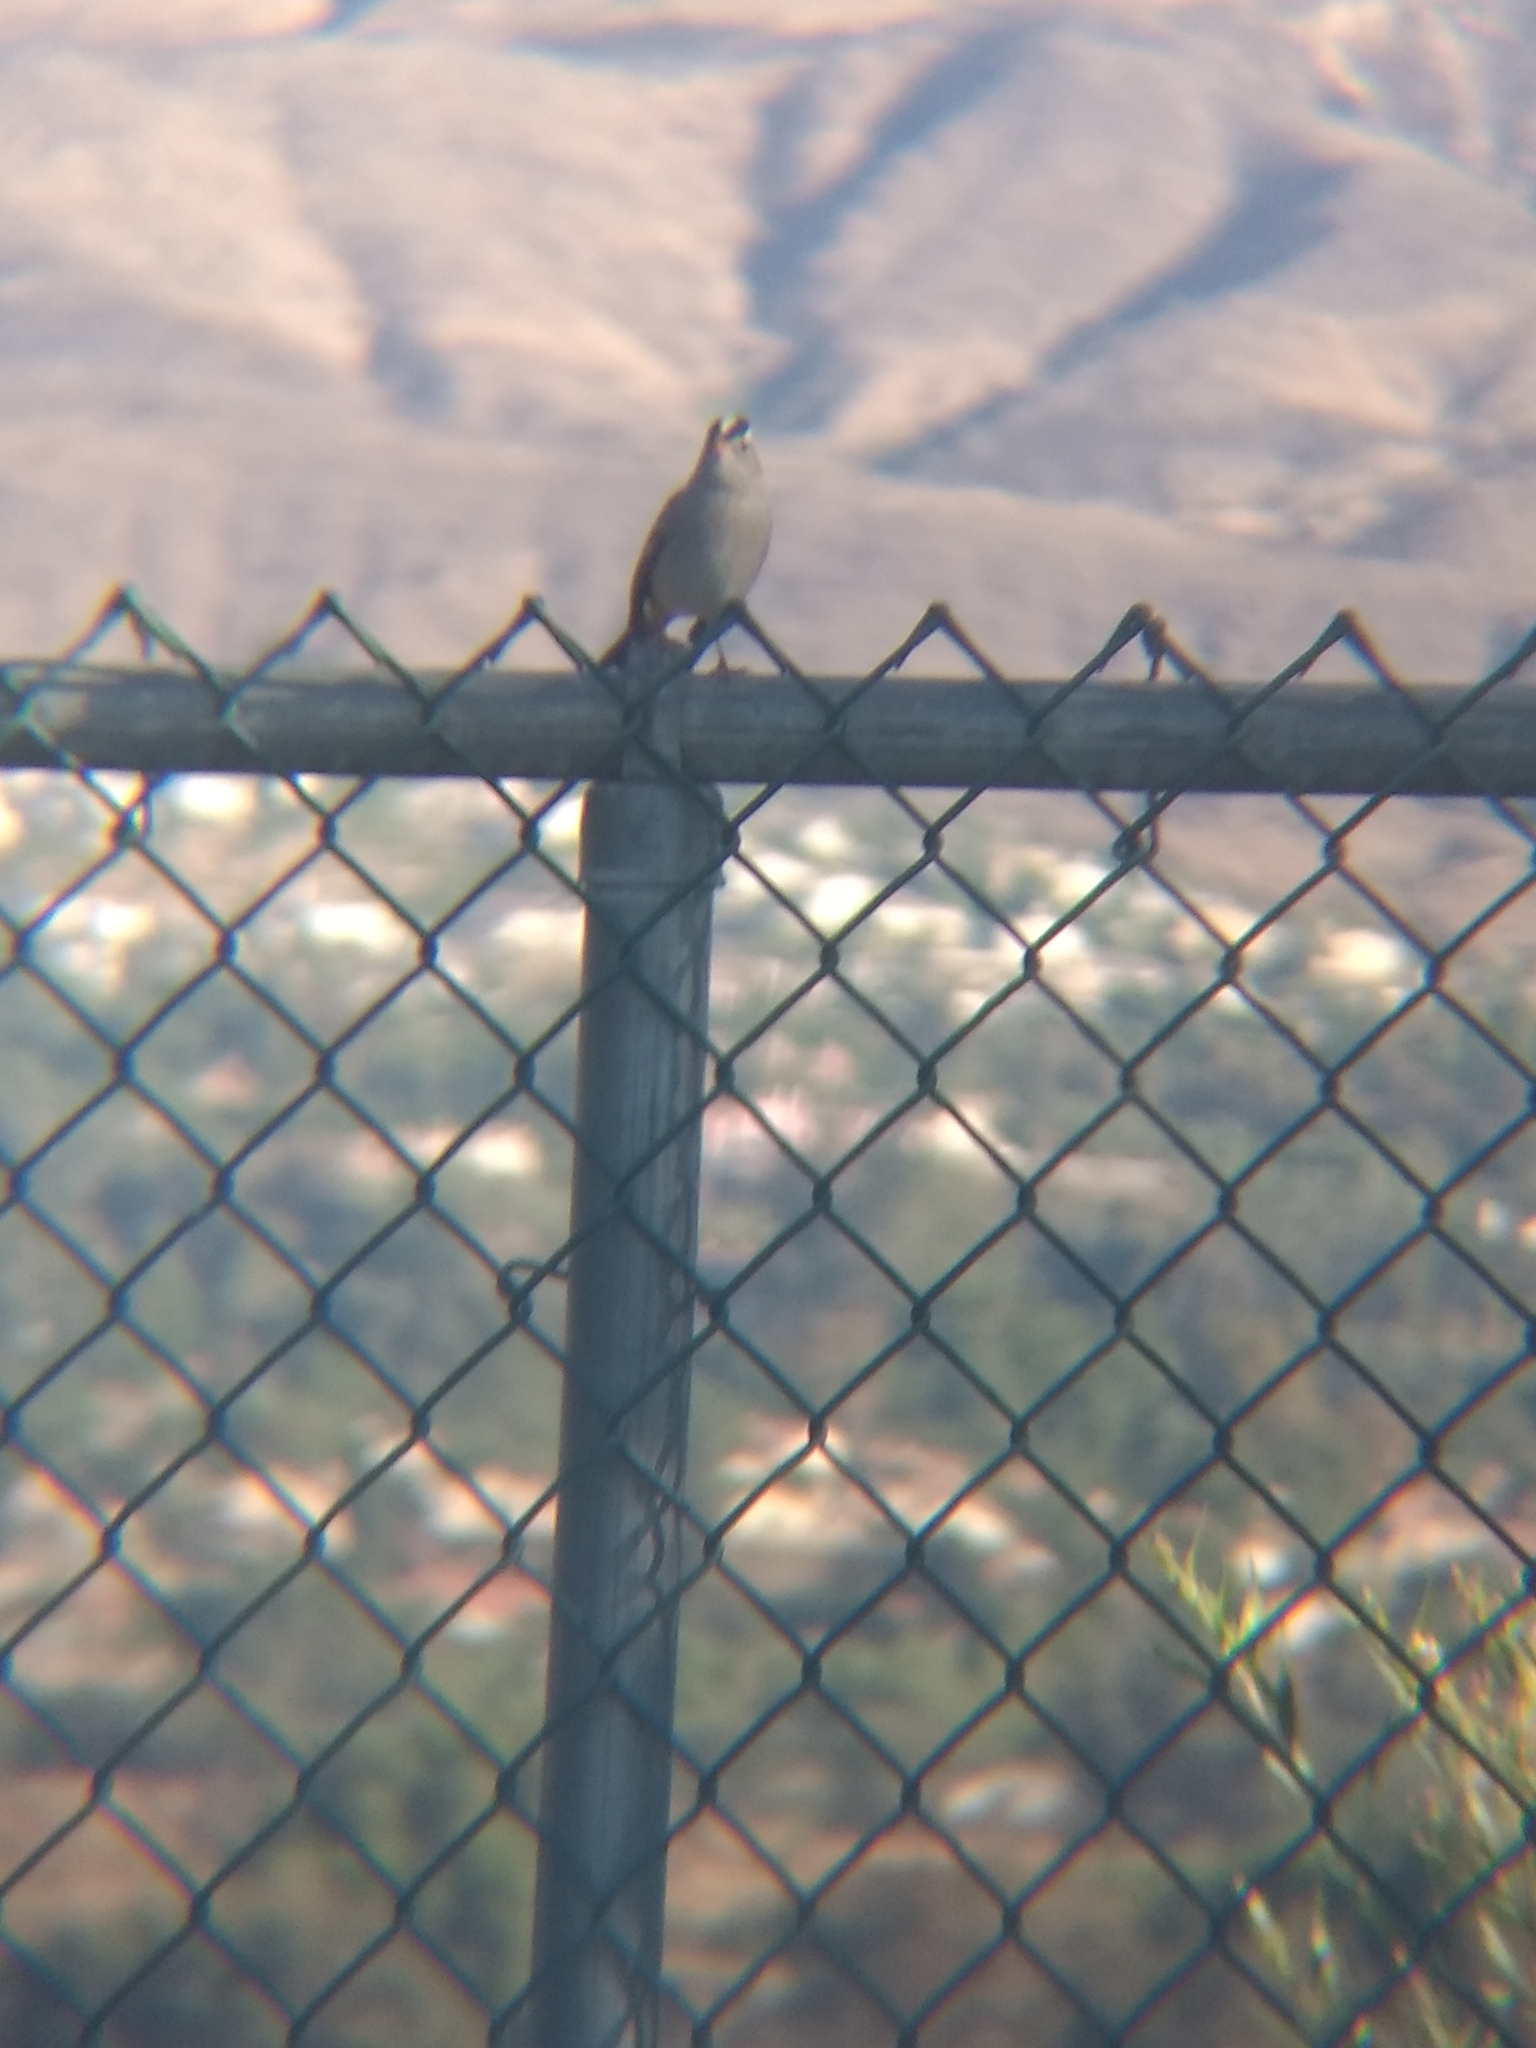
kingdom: Animalia
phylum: Chordata
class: Aves
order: Passeriformes
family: Passerellidae
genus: Zonotrichia
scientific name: Zonotrichia leucophrys
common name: White-crowned sparrow
